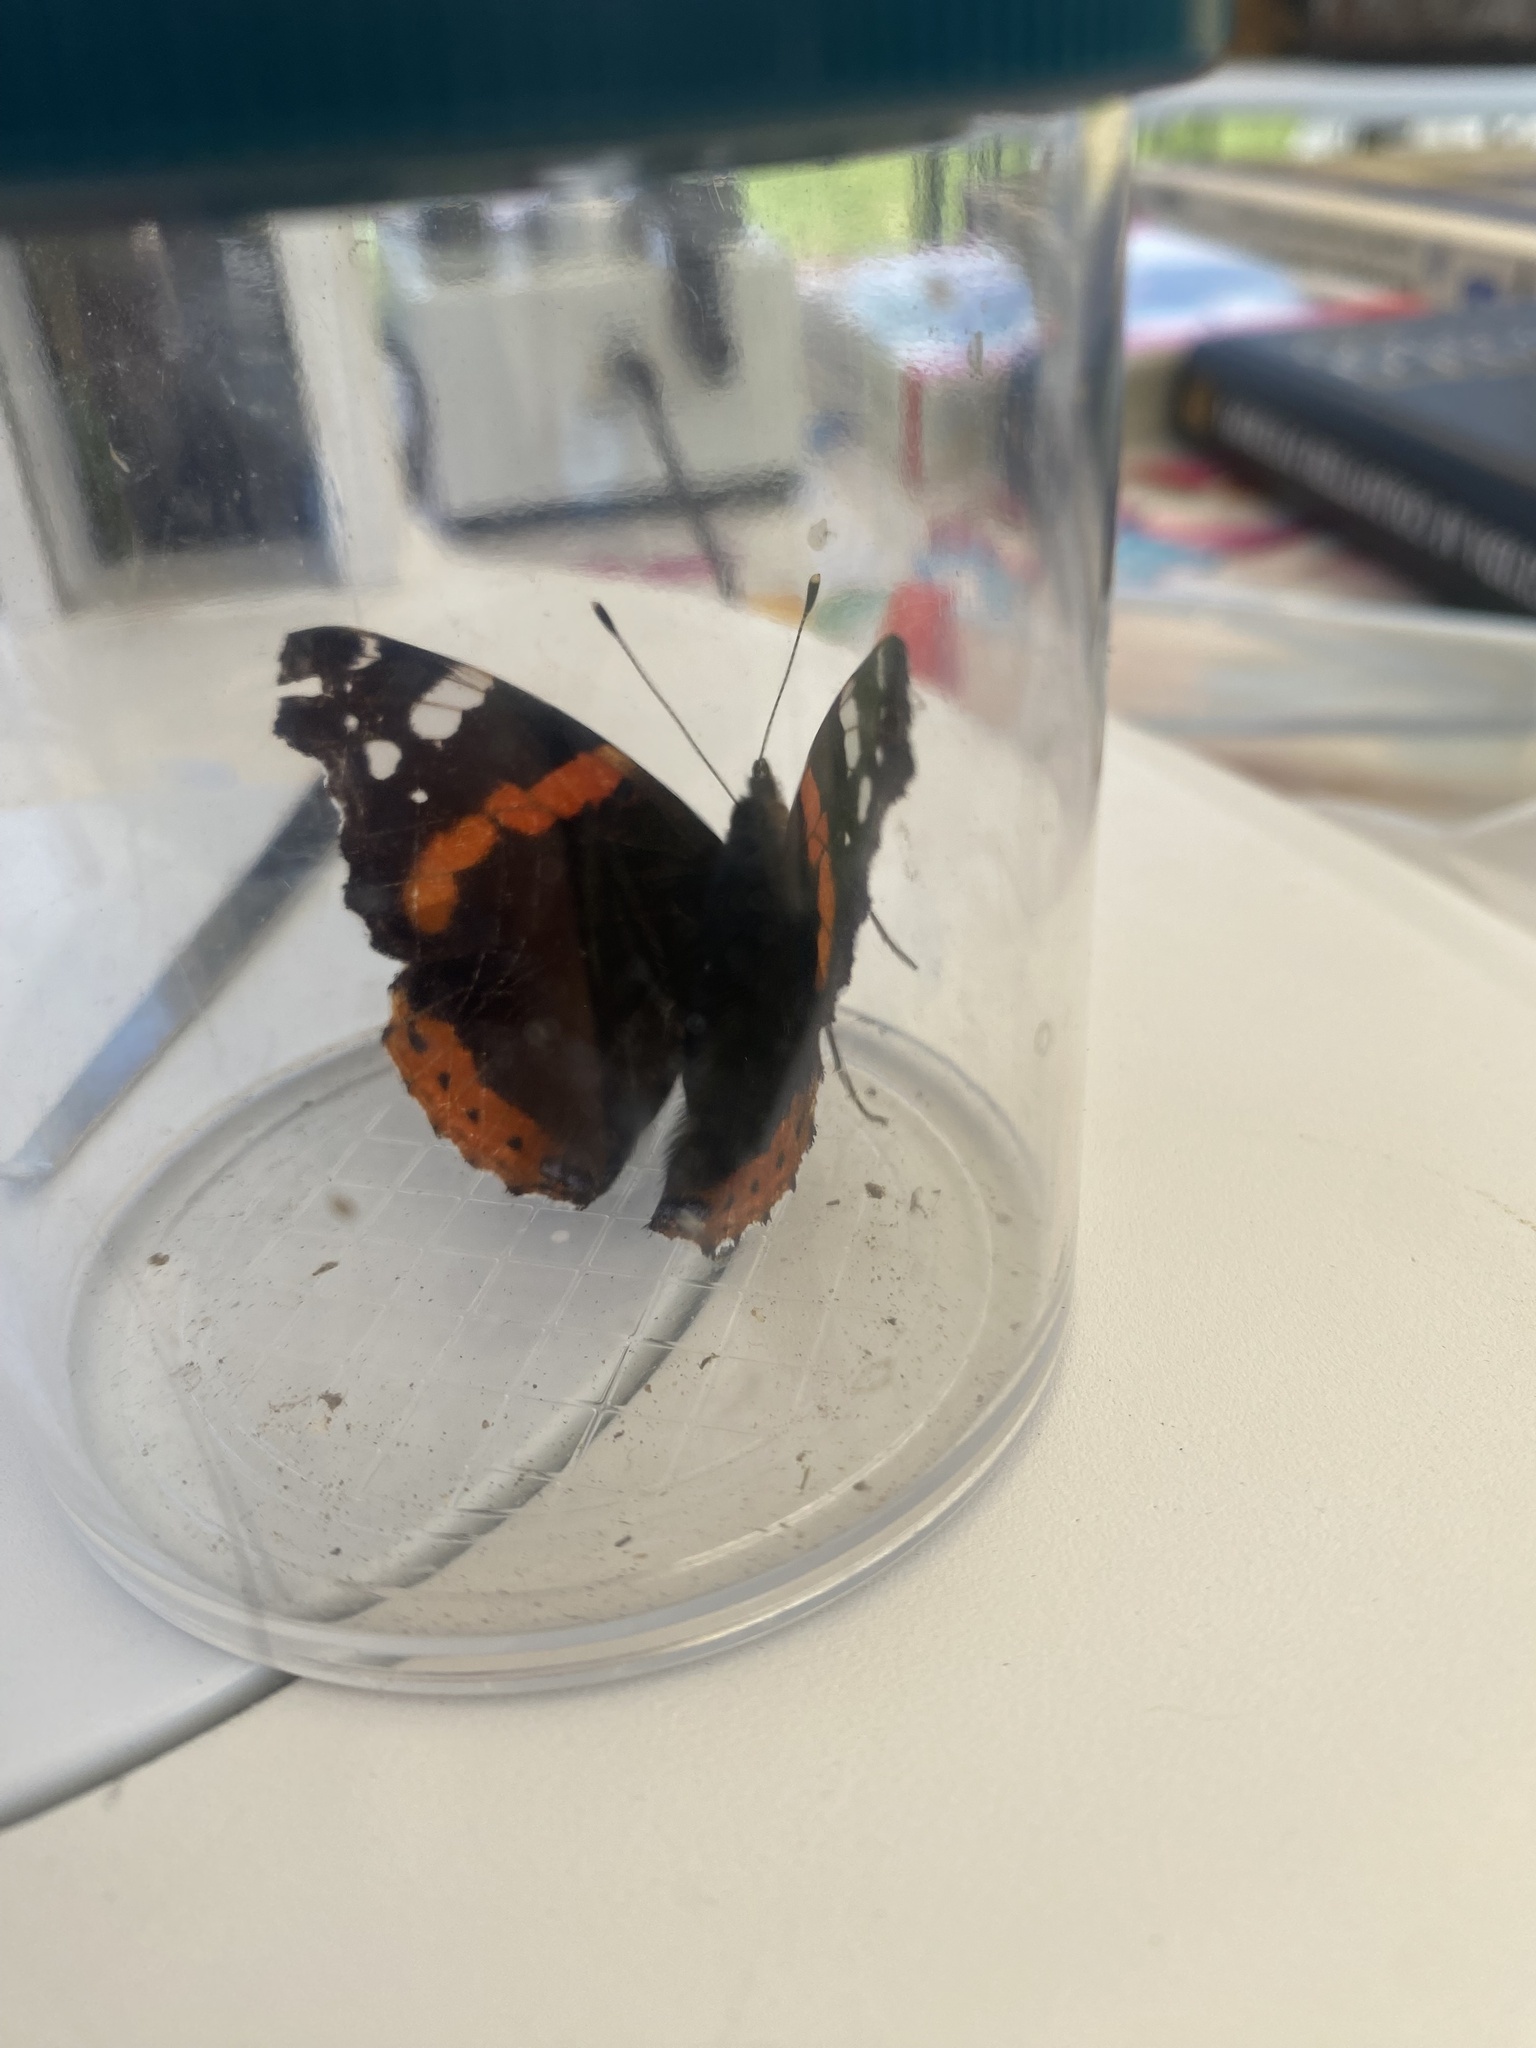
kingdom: Animalia
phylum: Arthropoda
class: Insecta
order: Lepidoptera
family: Nymphalidae
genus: Vanessa
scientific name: Vanessa atalanta
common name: Red admiral
